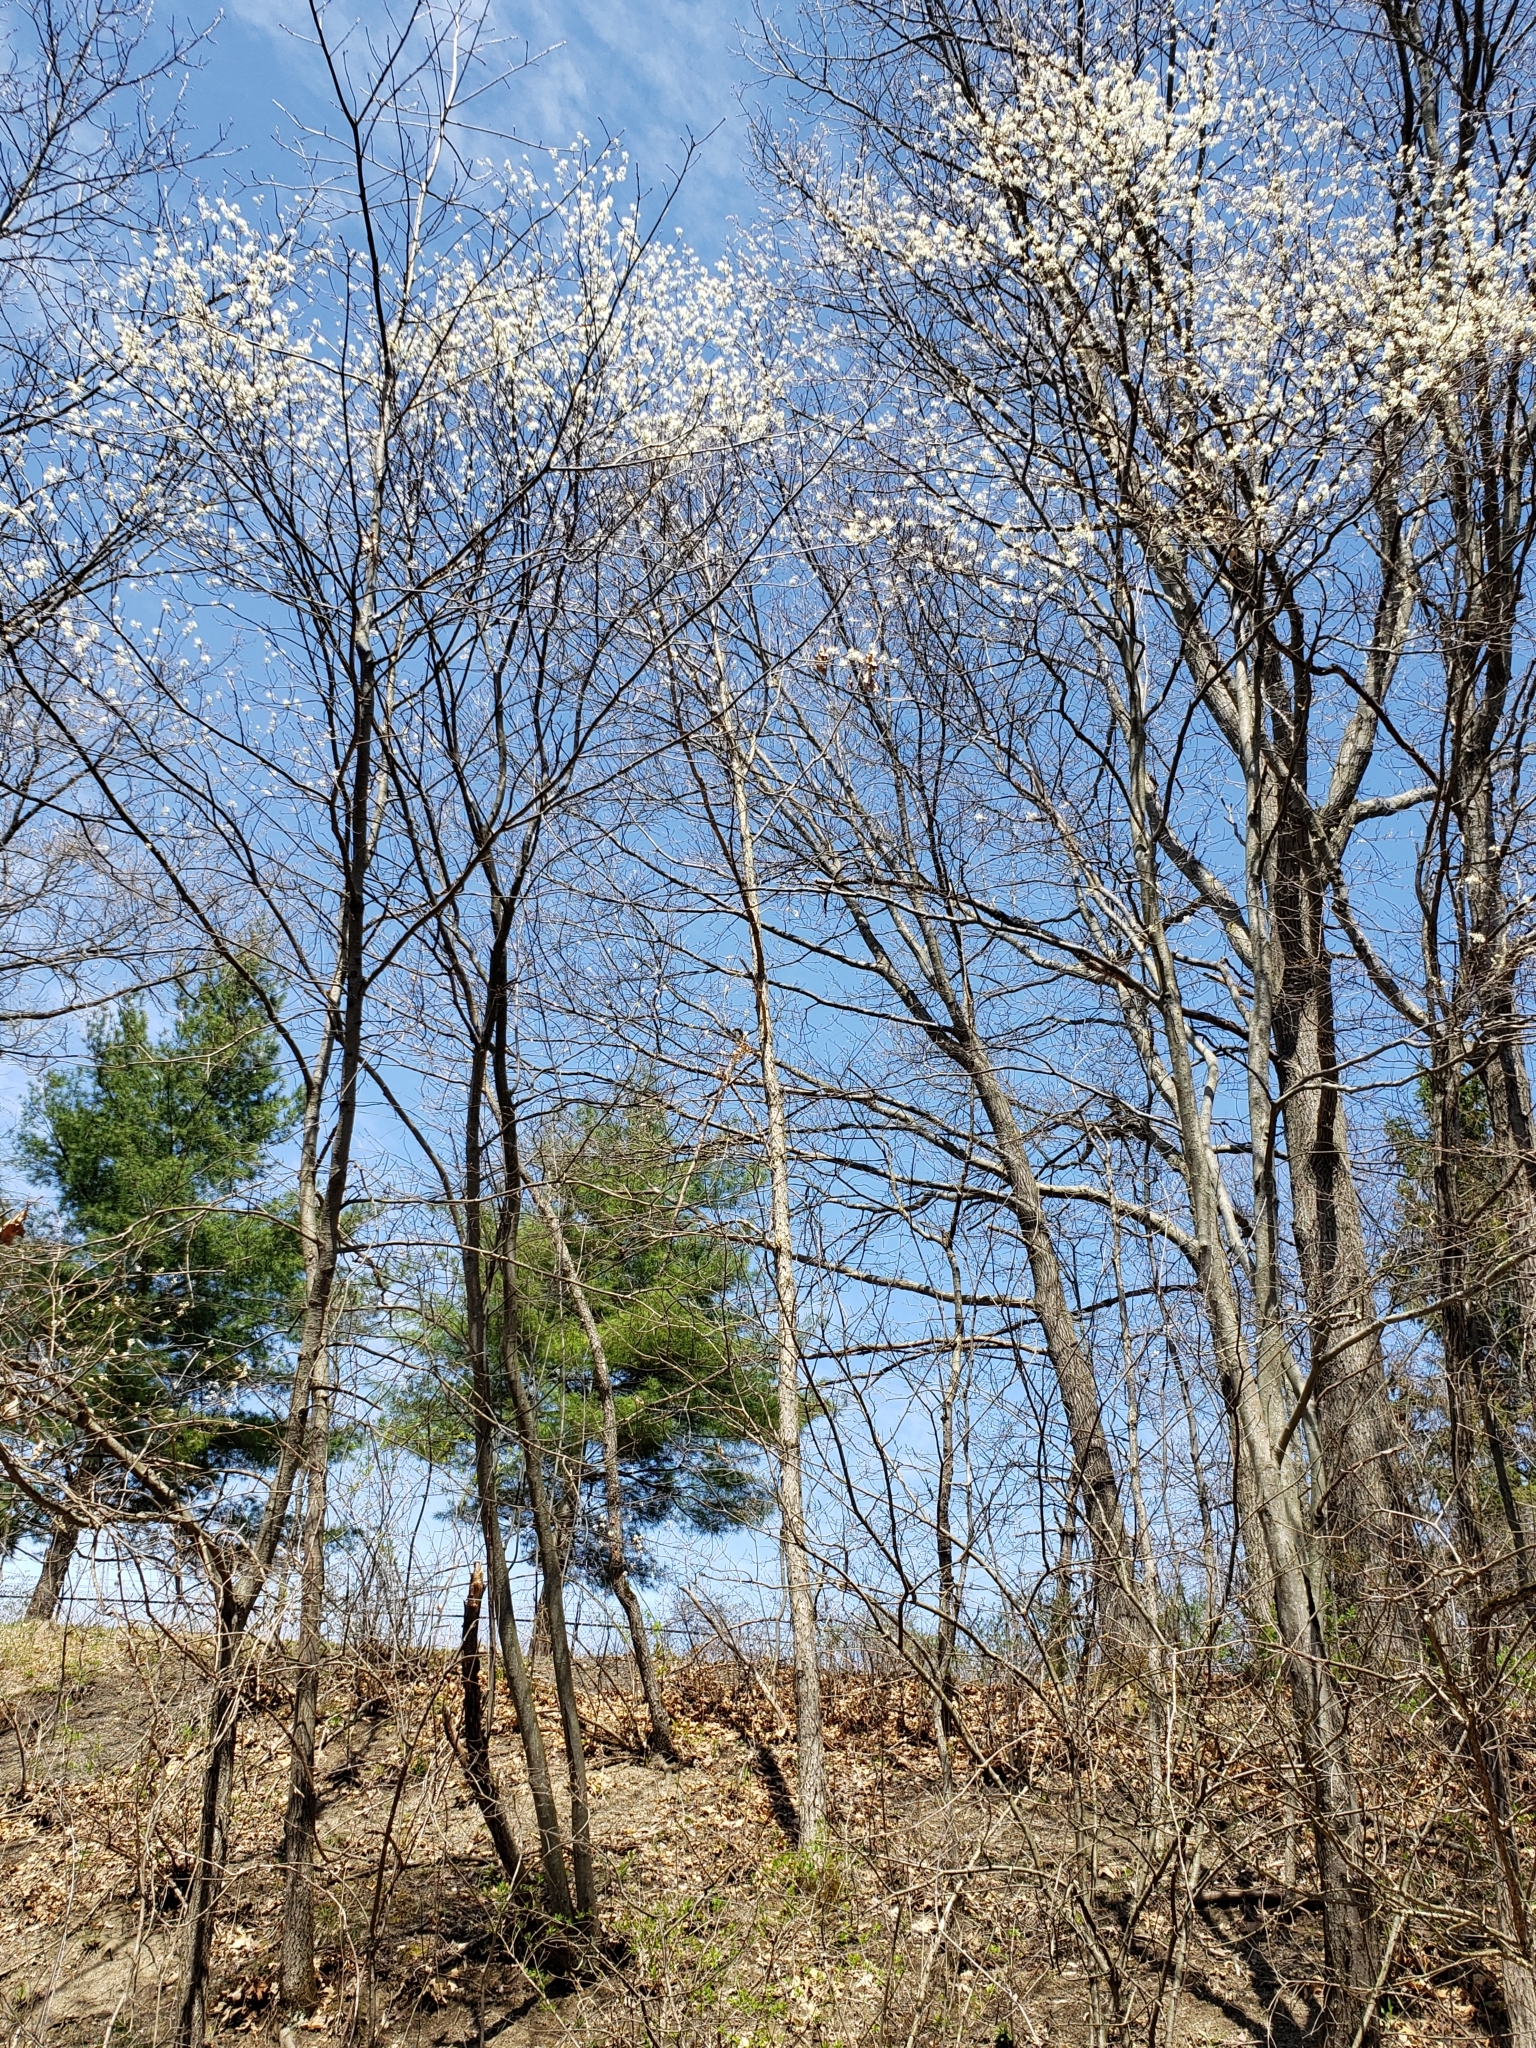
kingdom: Plantae
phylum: Tracheophyta
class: Magnoliopsida
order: Rosales
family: Rosaceae
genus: Amelanchier
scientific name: Amelanchier arborea
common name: Downy serviceberry
